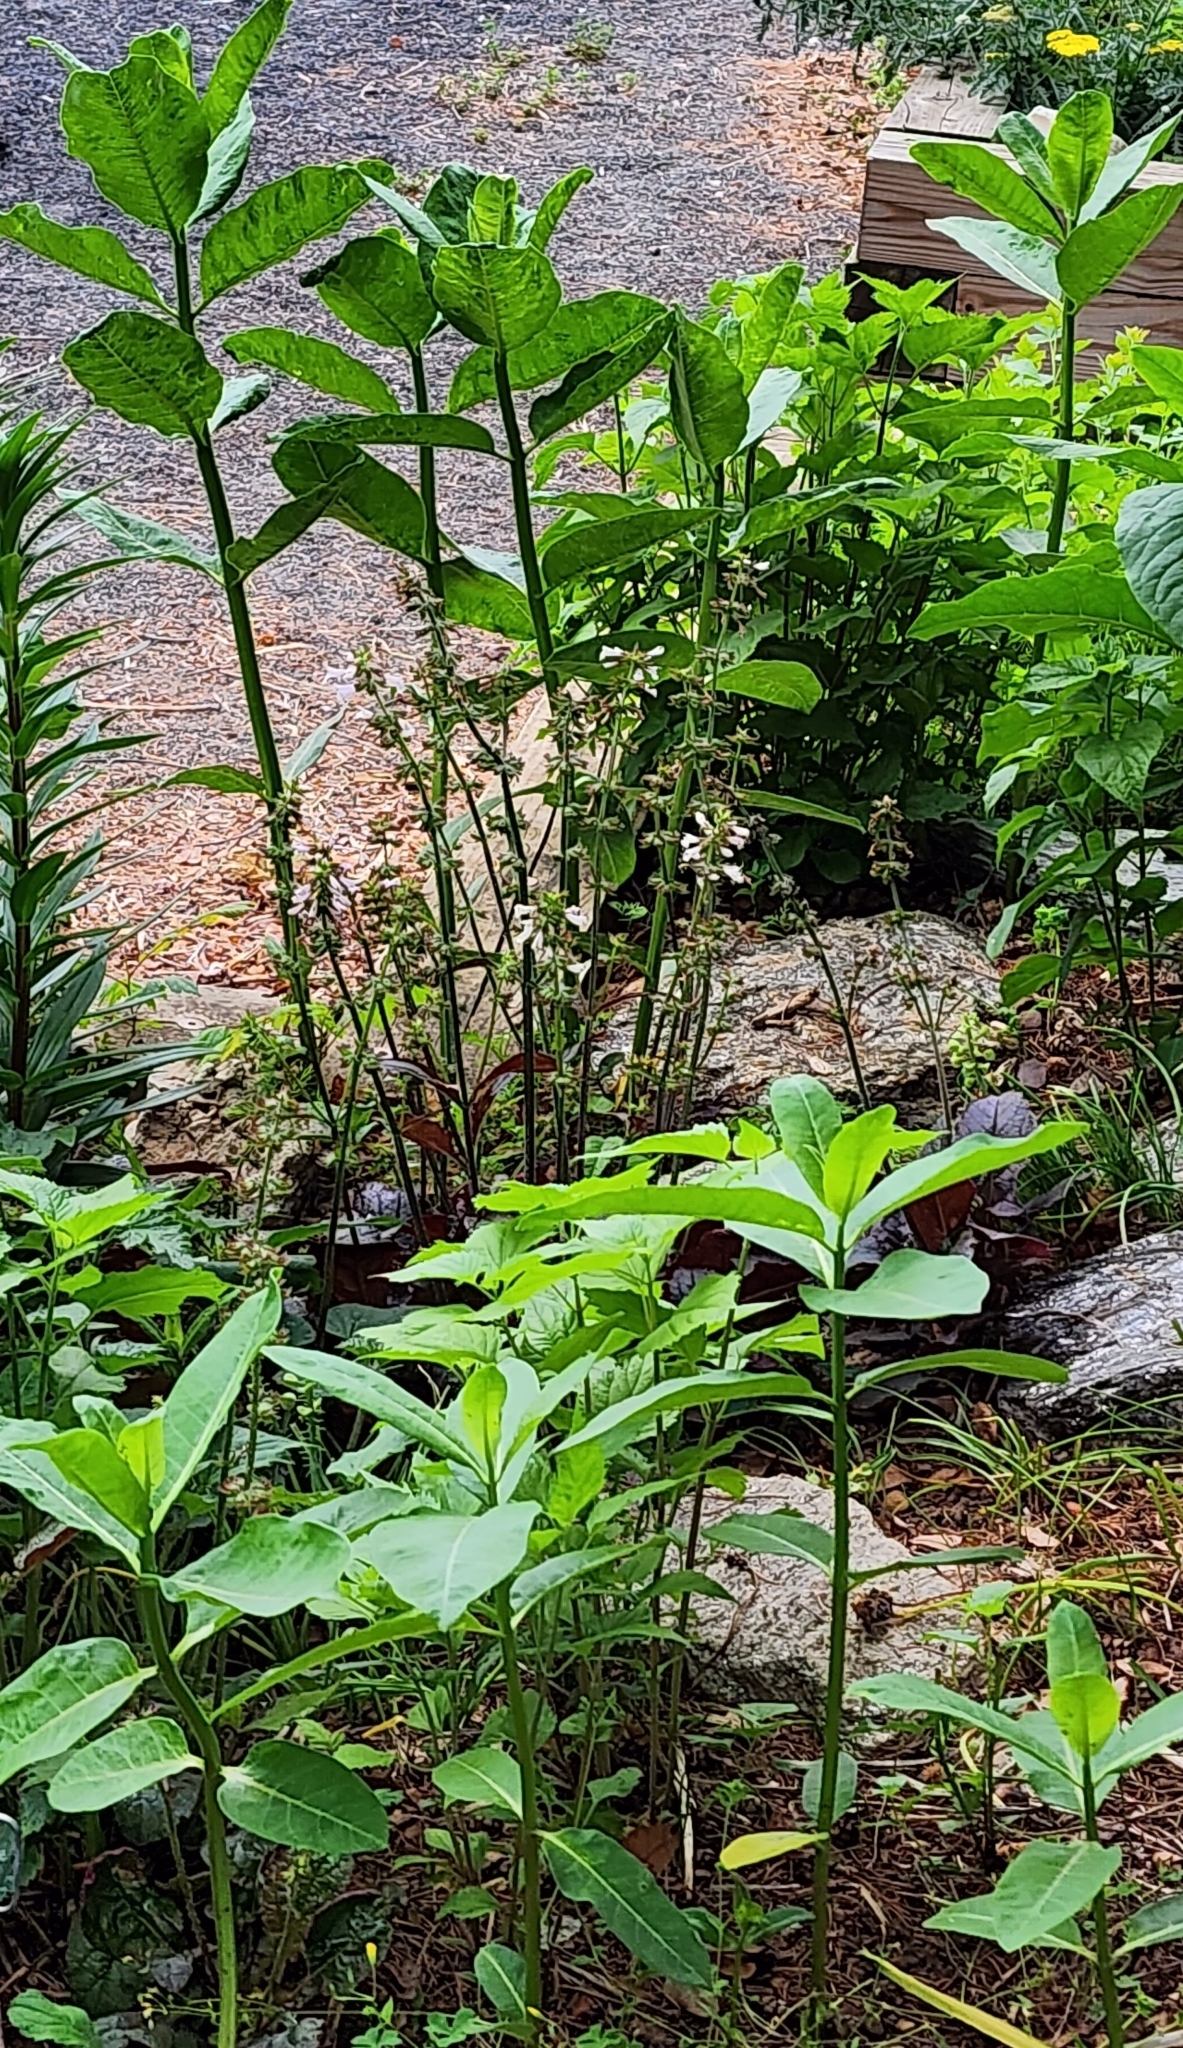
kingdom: Plantae
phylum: Tracheophyta
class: Magnoliopsida
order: Gentianales
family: Apocynaceae
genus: Asclepias
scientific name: Asclepias syriaca
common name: Common milkweed
